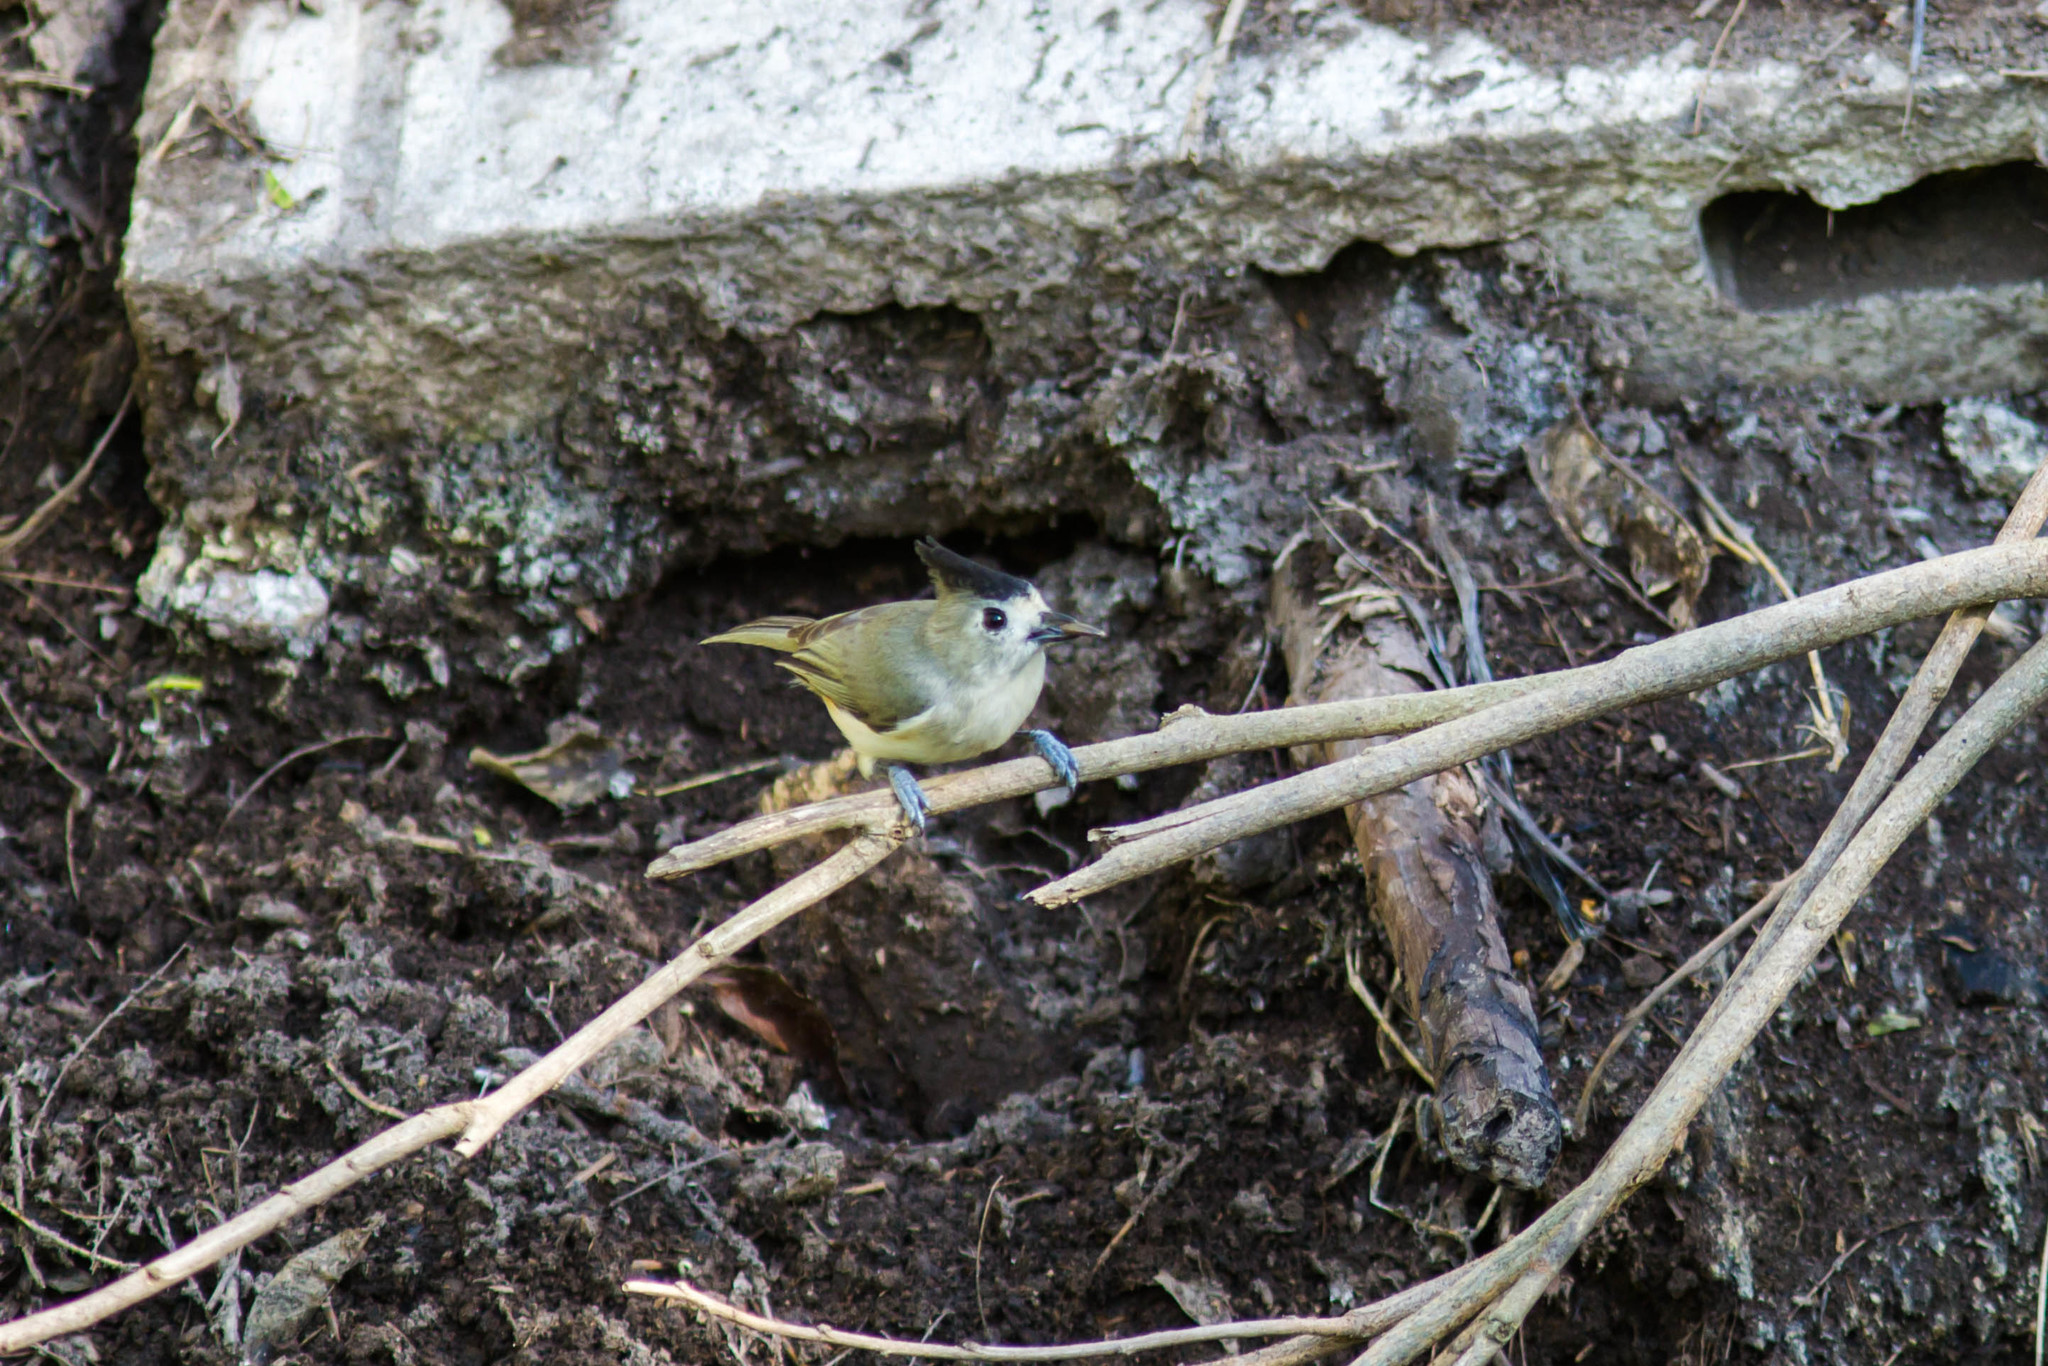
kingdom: Animalia
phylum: Chordata
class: Aves
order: Passeriformes
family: Paridae
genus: Baeolophus
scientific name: Baeolophus atricristatus
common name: Black-crested titmouse
